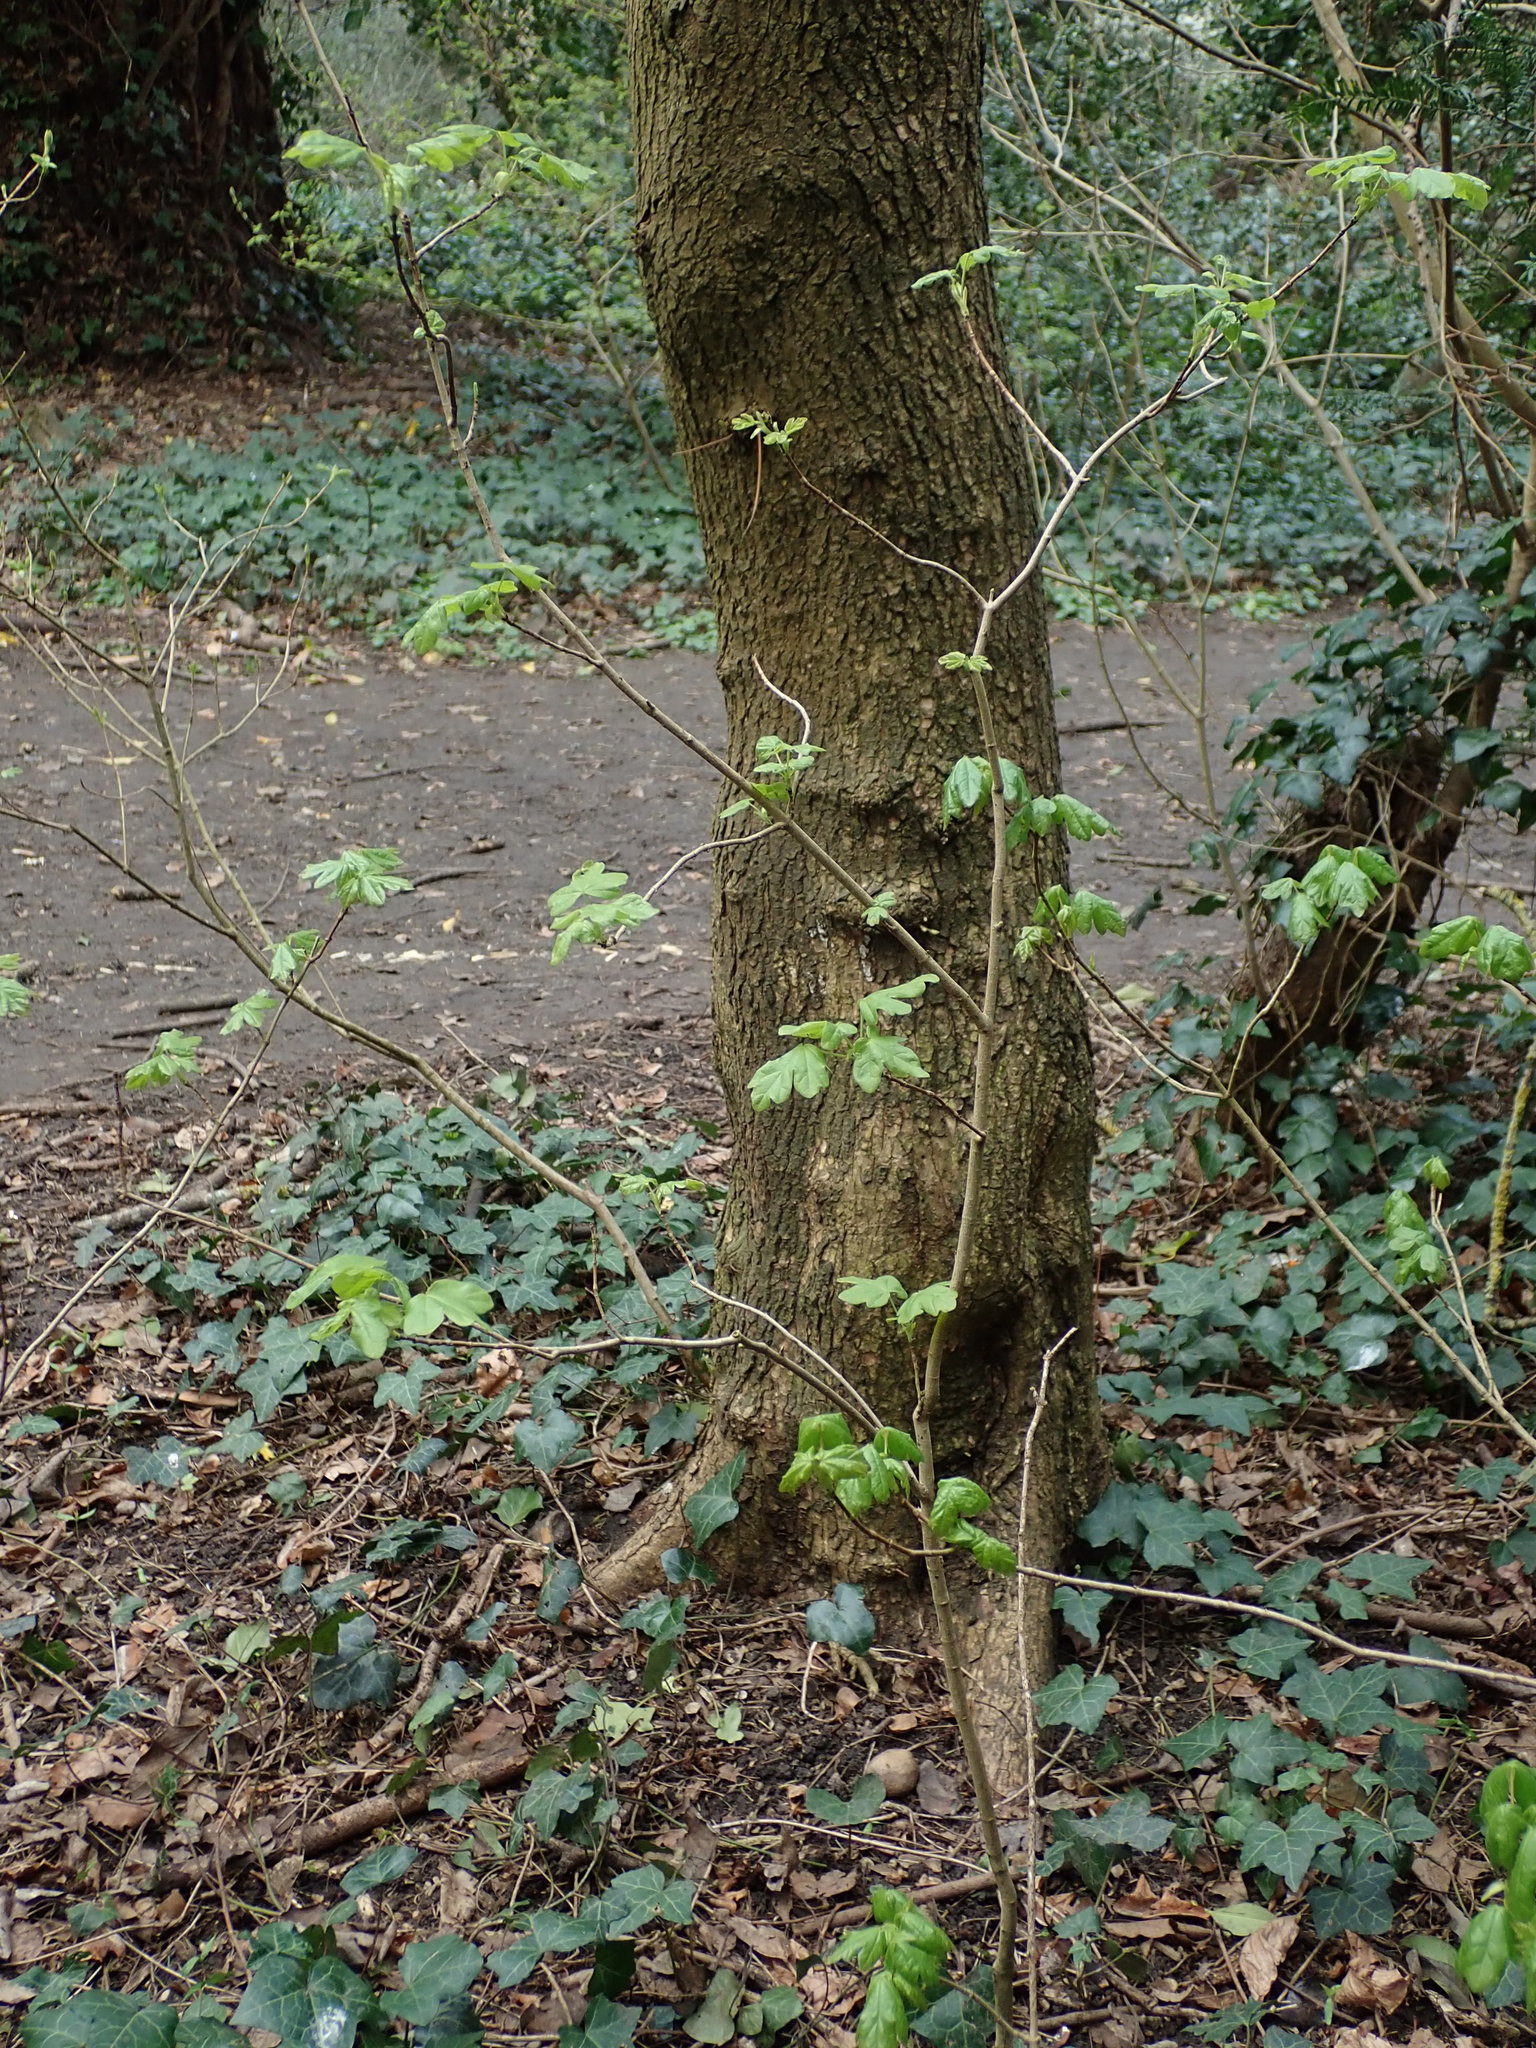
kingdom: Plantae
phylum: Tracheophyta
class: Magnoliopsida
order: Sapindales
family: Sapindaceae
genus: Acer
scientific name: Acer campestre
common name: Field maple
